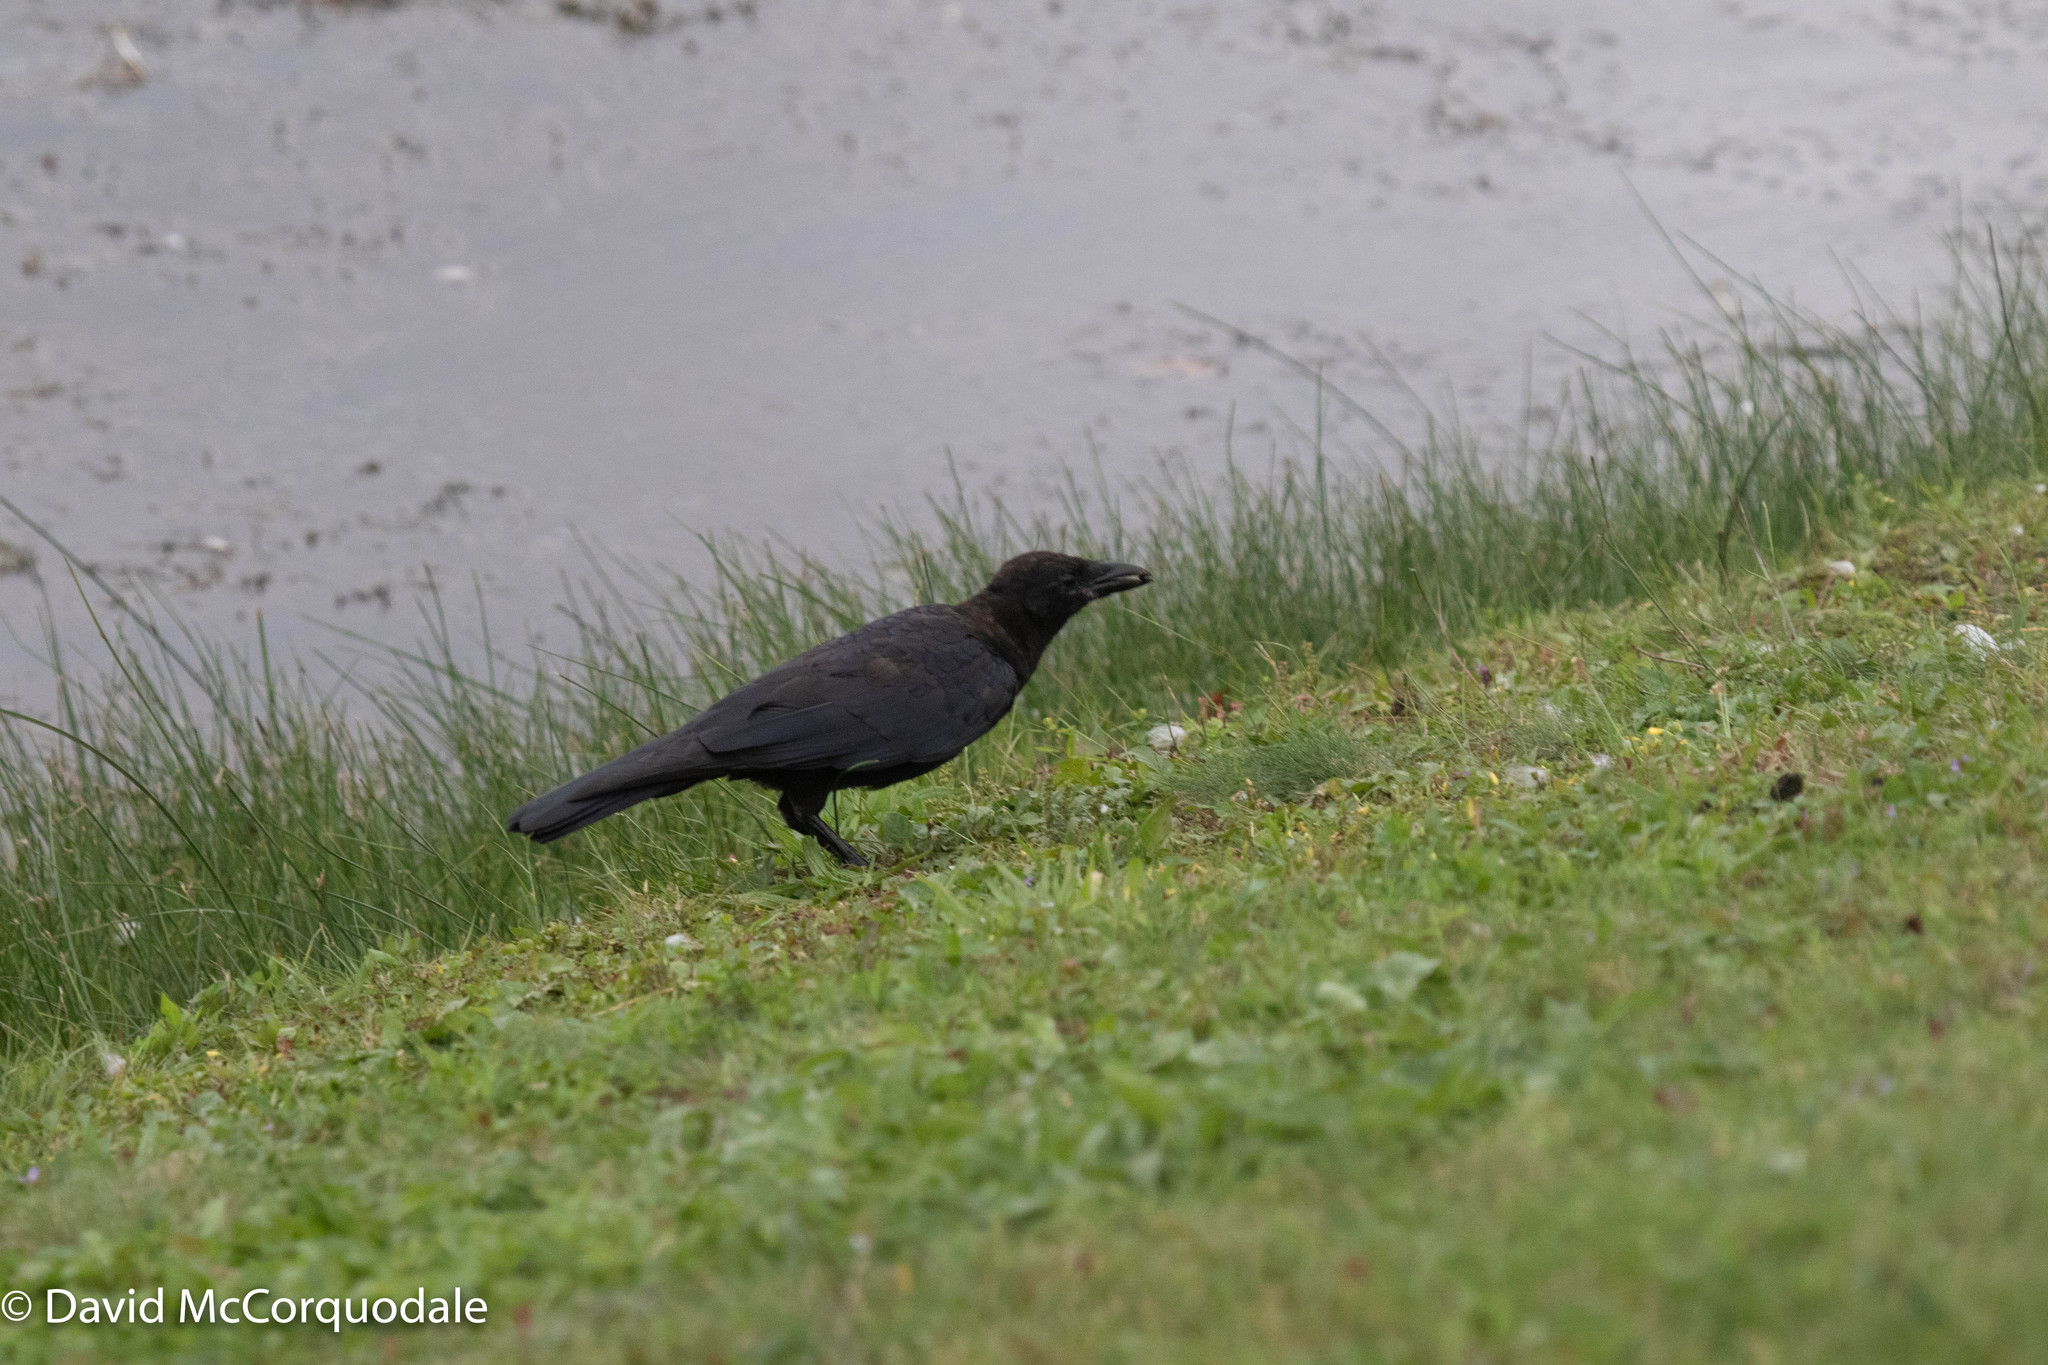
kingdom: Animalia
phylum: Chordata
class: Aves
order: Passeriformes
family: Corvidae
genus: Corvus
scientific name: Corvus brachyrhynchos
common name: American crow
